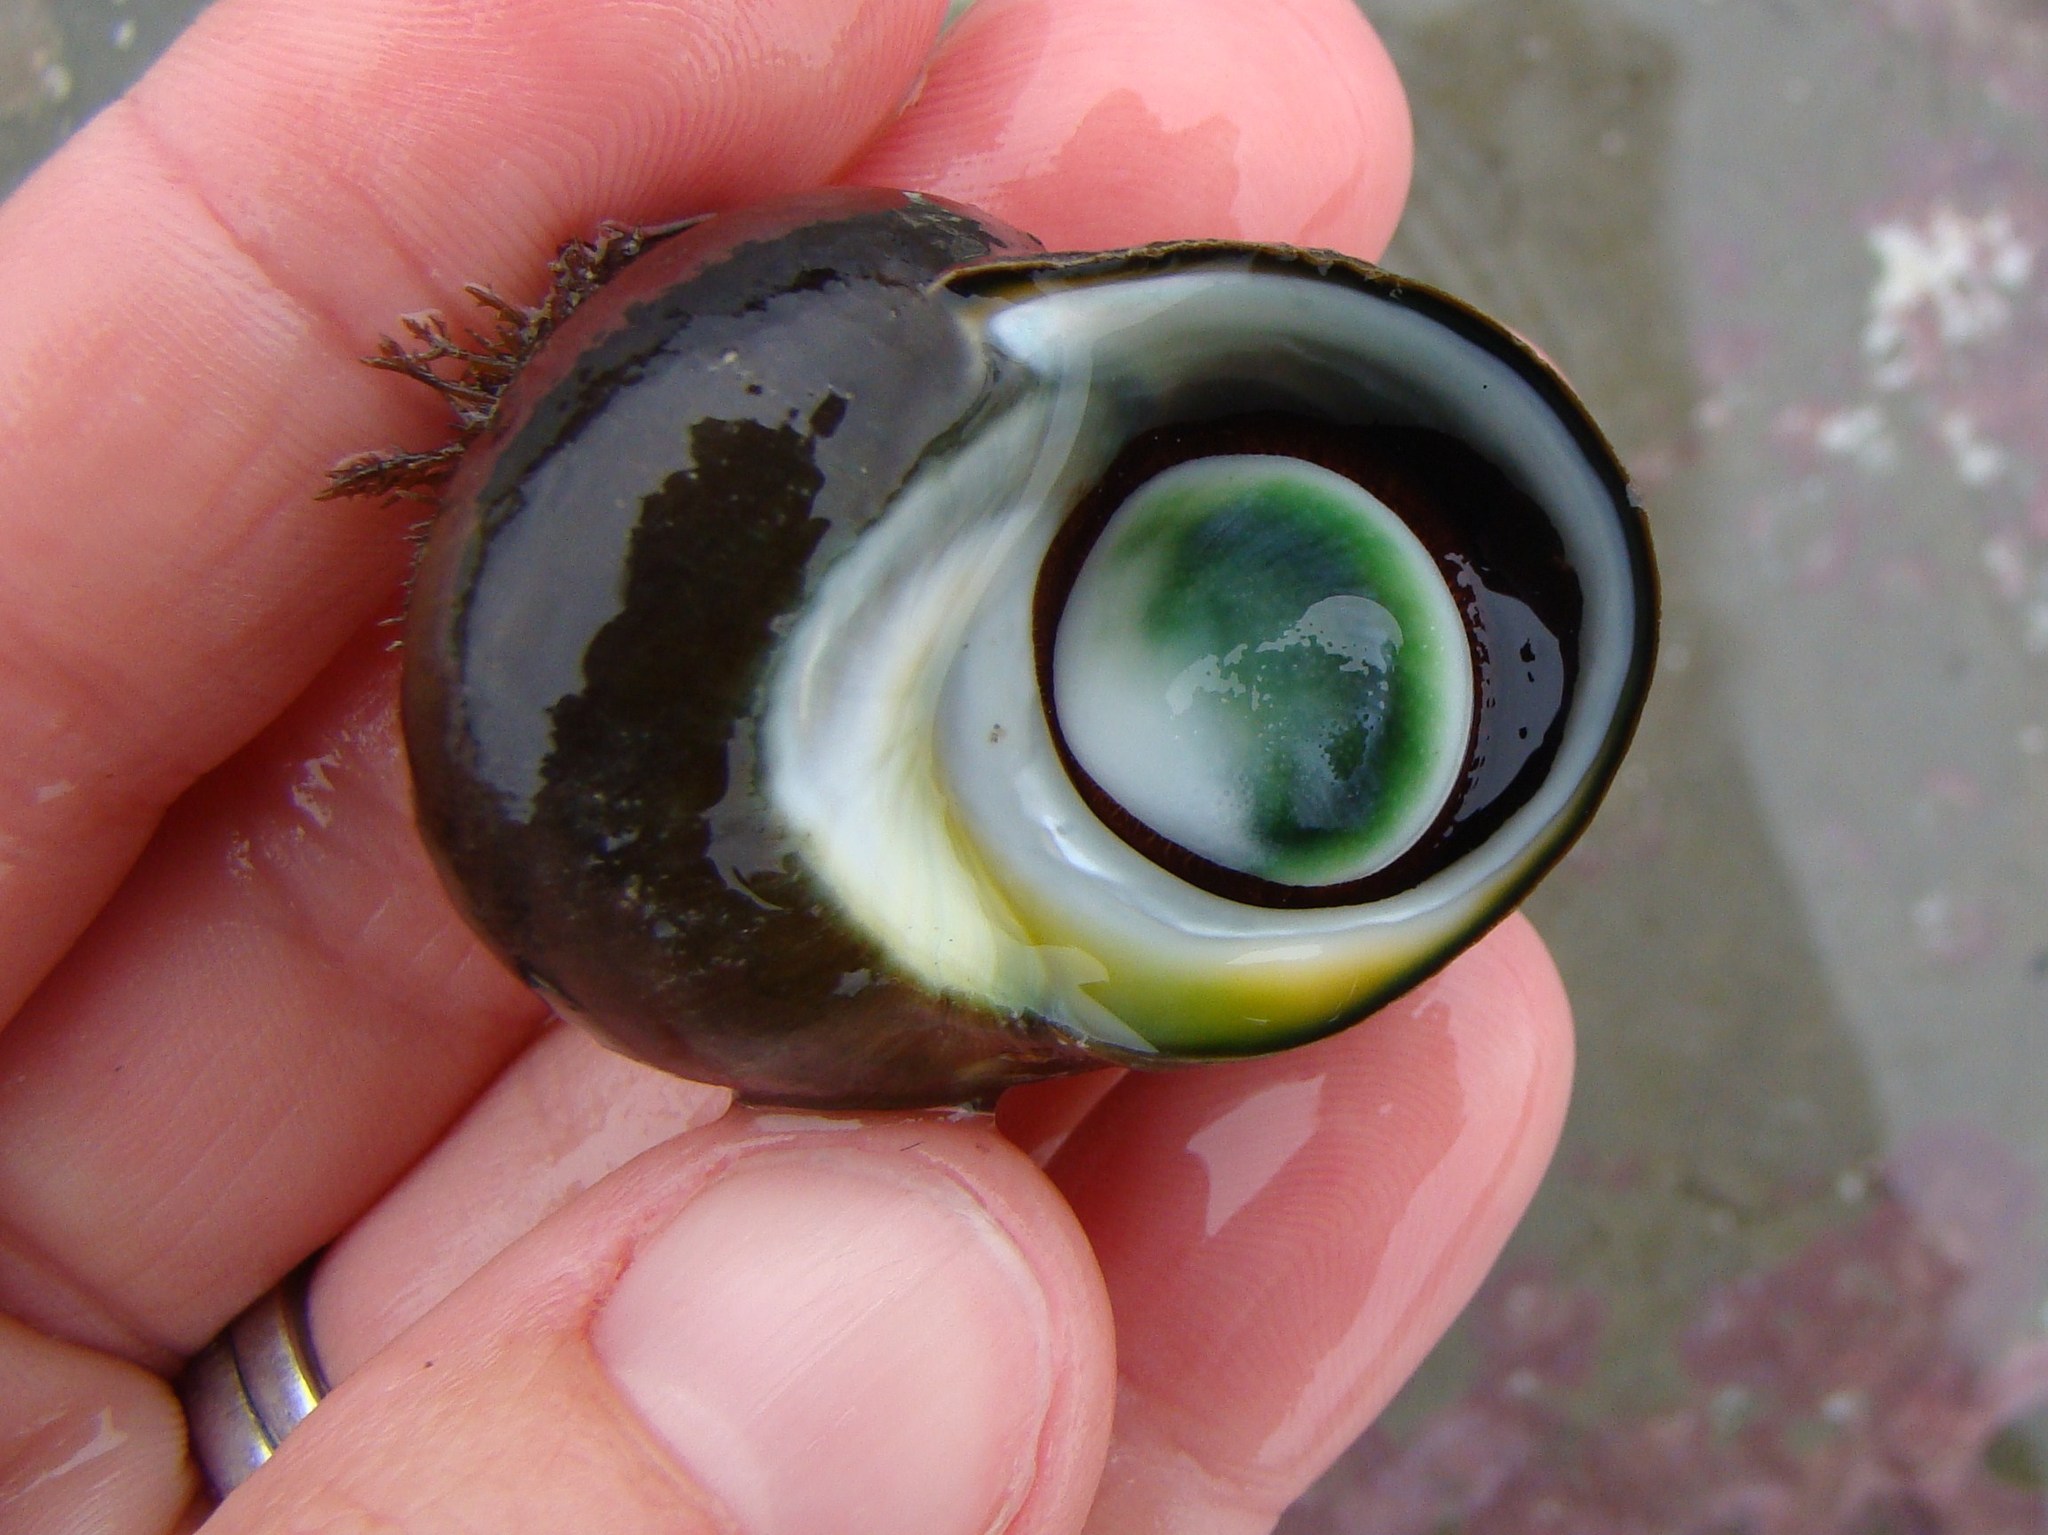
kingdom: Animalia
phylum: Mollusca
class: Gastropoda
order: Trochida
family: Turbinidae
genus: Lunella
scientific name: Lunella smaragda
